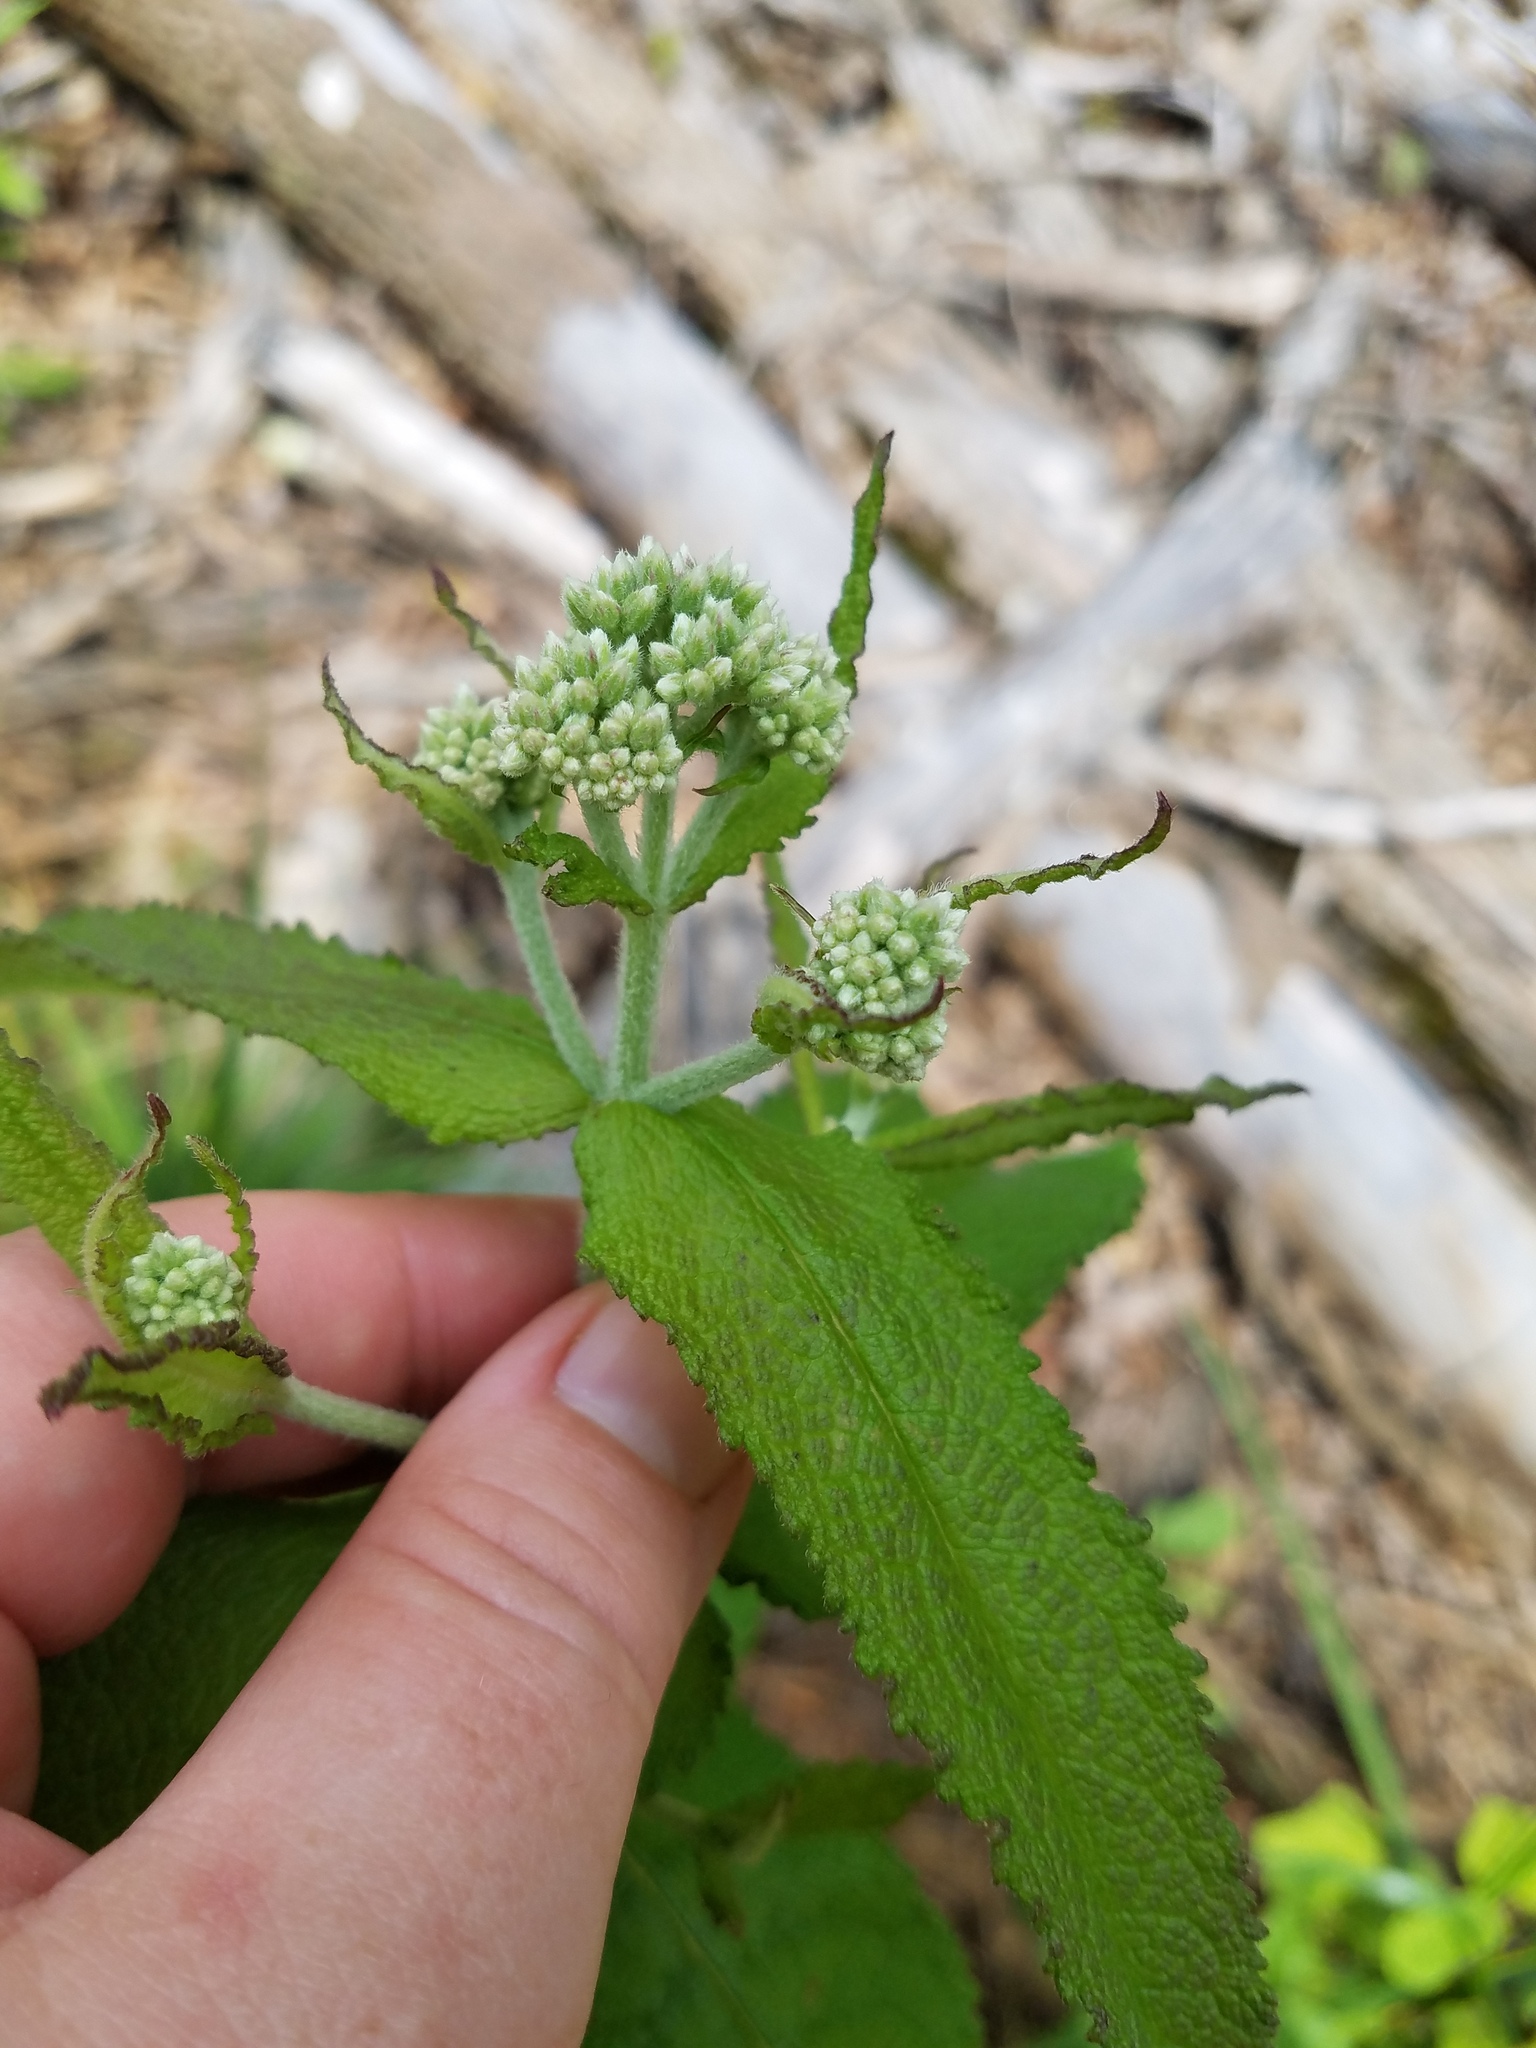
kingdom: Plantae
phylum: Tracheophyta
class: Magnoliopsida
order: Asterales
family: Asteraceae
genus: Eupatorium
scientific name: Eupatorium perfoliatum
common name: Boneset
